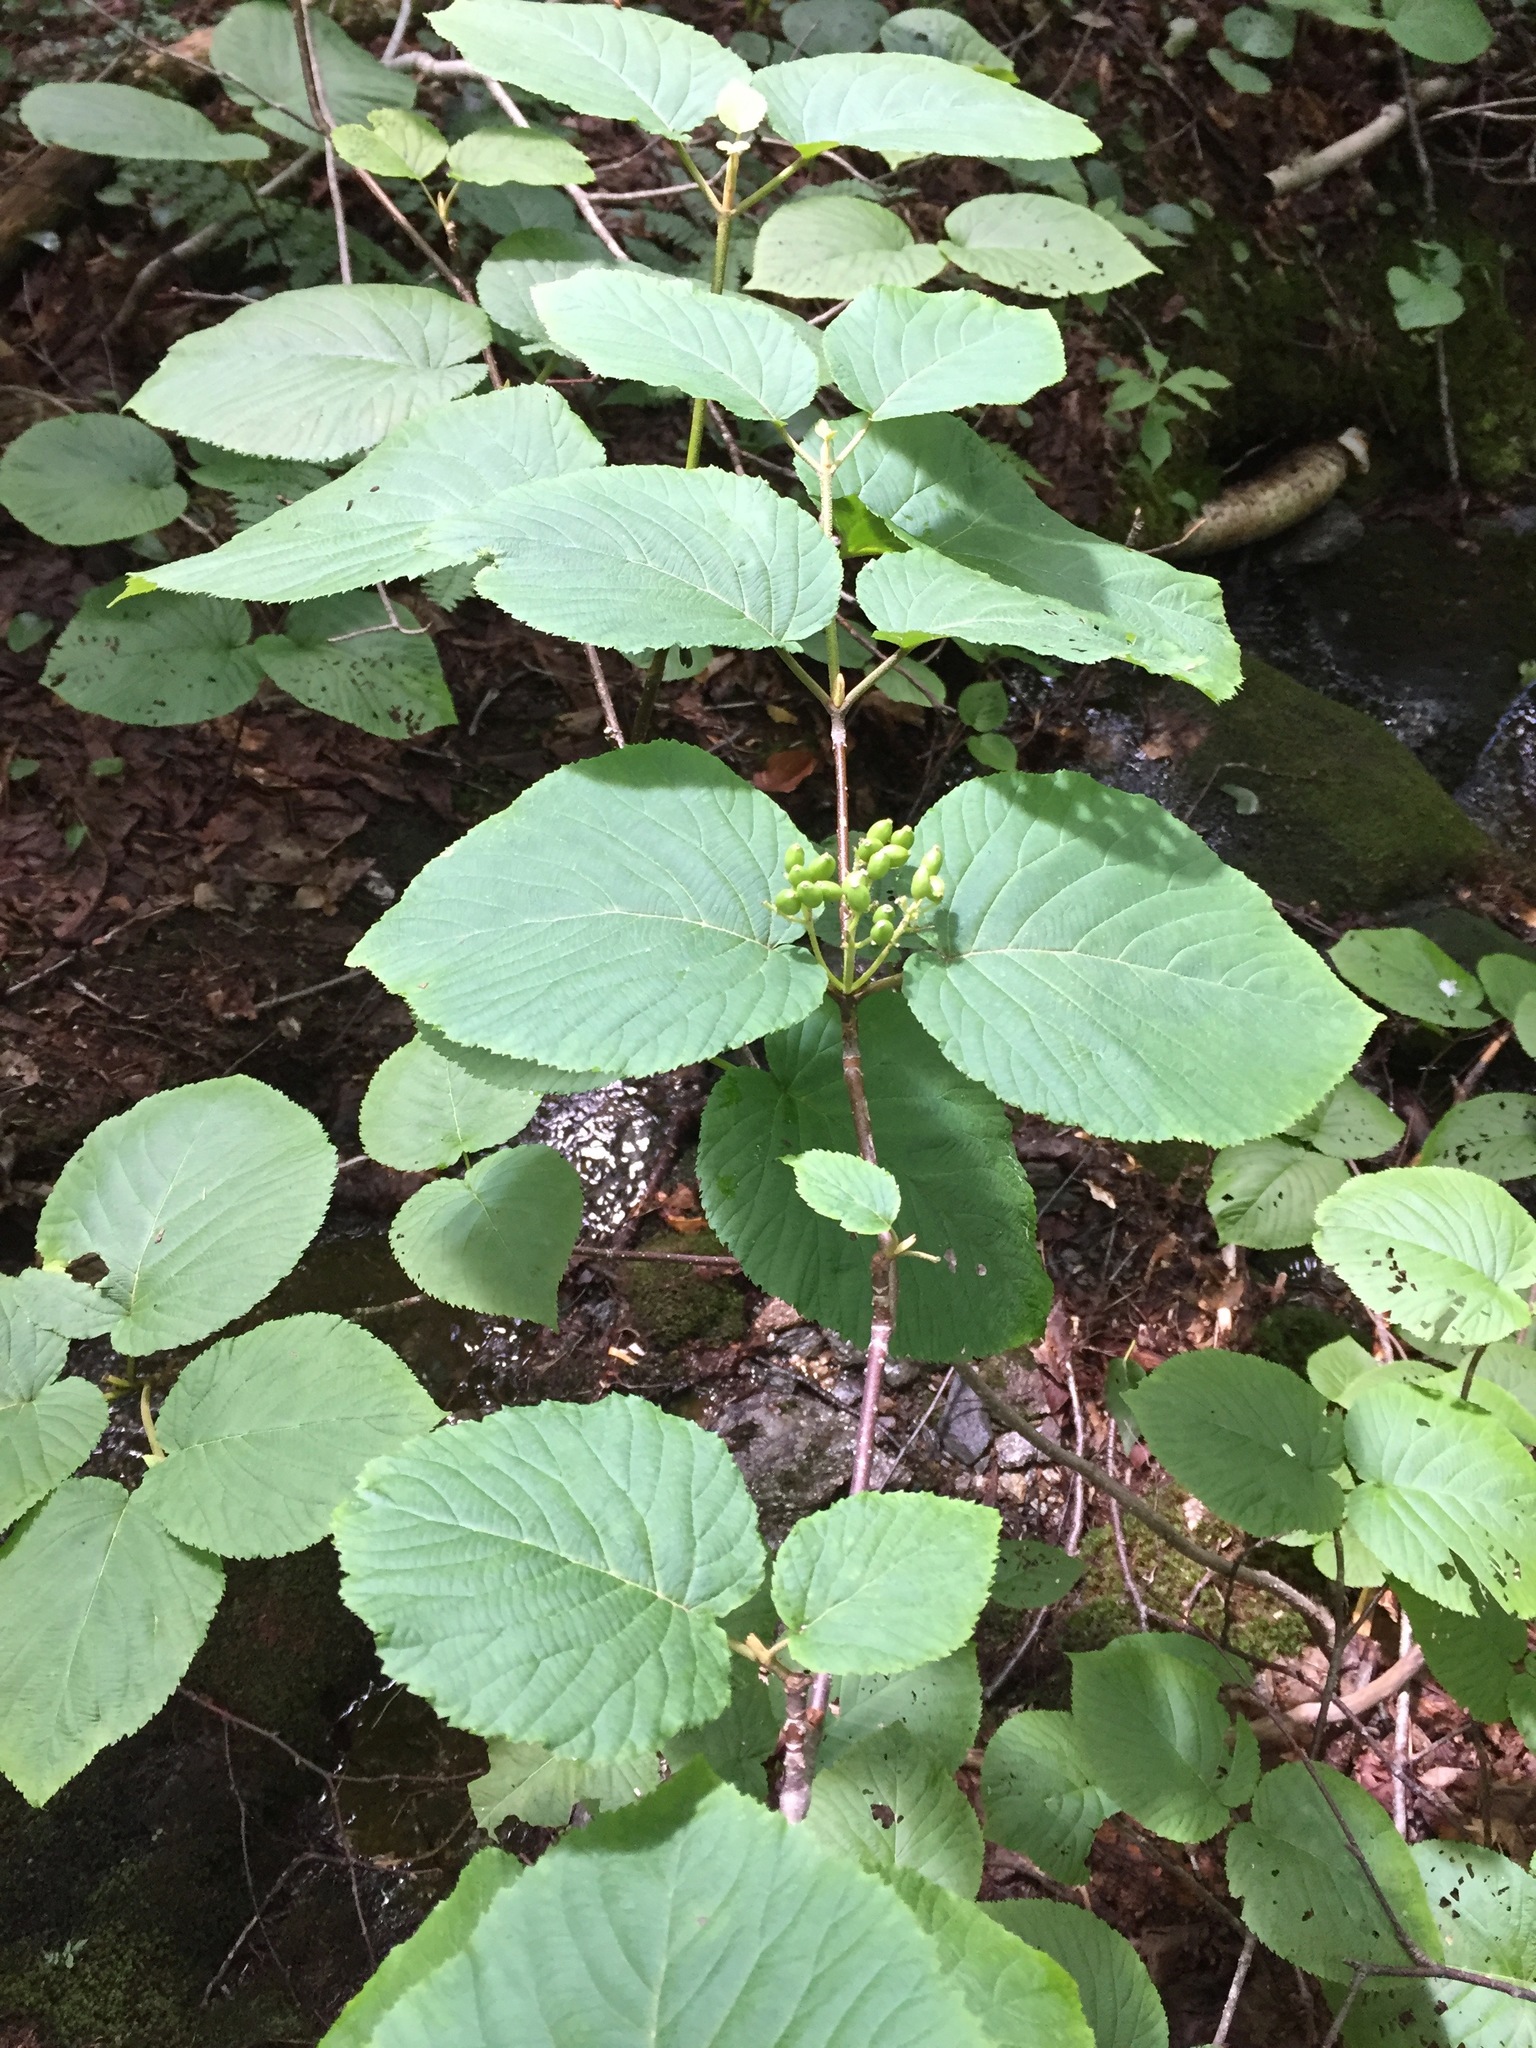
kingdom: Plantae
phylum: Tracheophyta
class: Magnoliopsida
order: Dipsacales
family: Viburnaceae
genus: Viburnum
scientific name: Viburnum lantanoides
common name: Hobblebush
